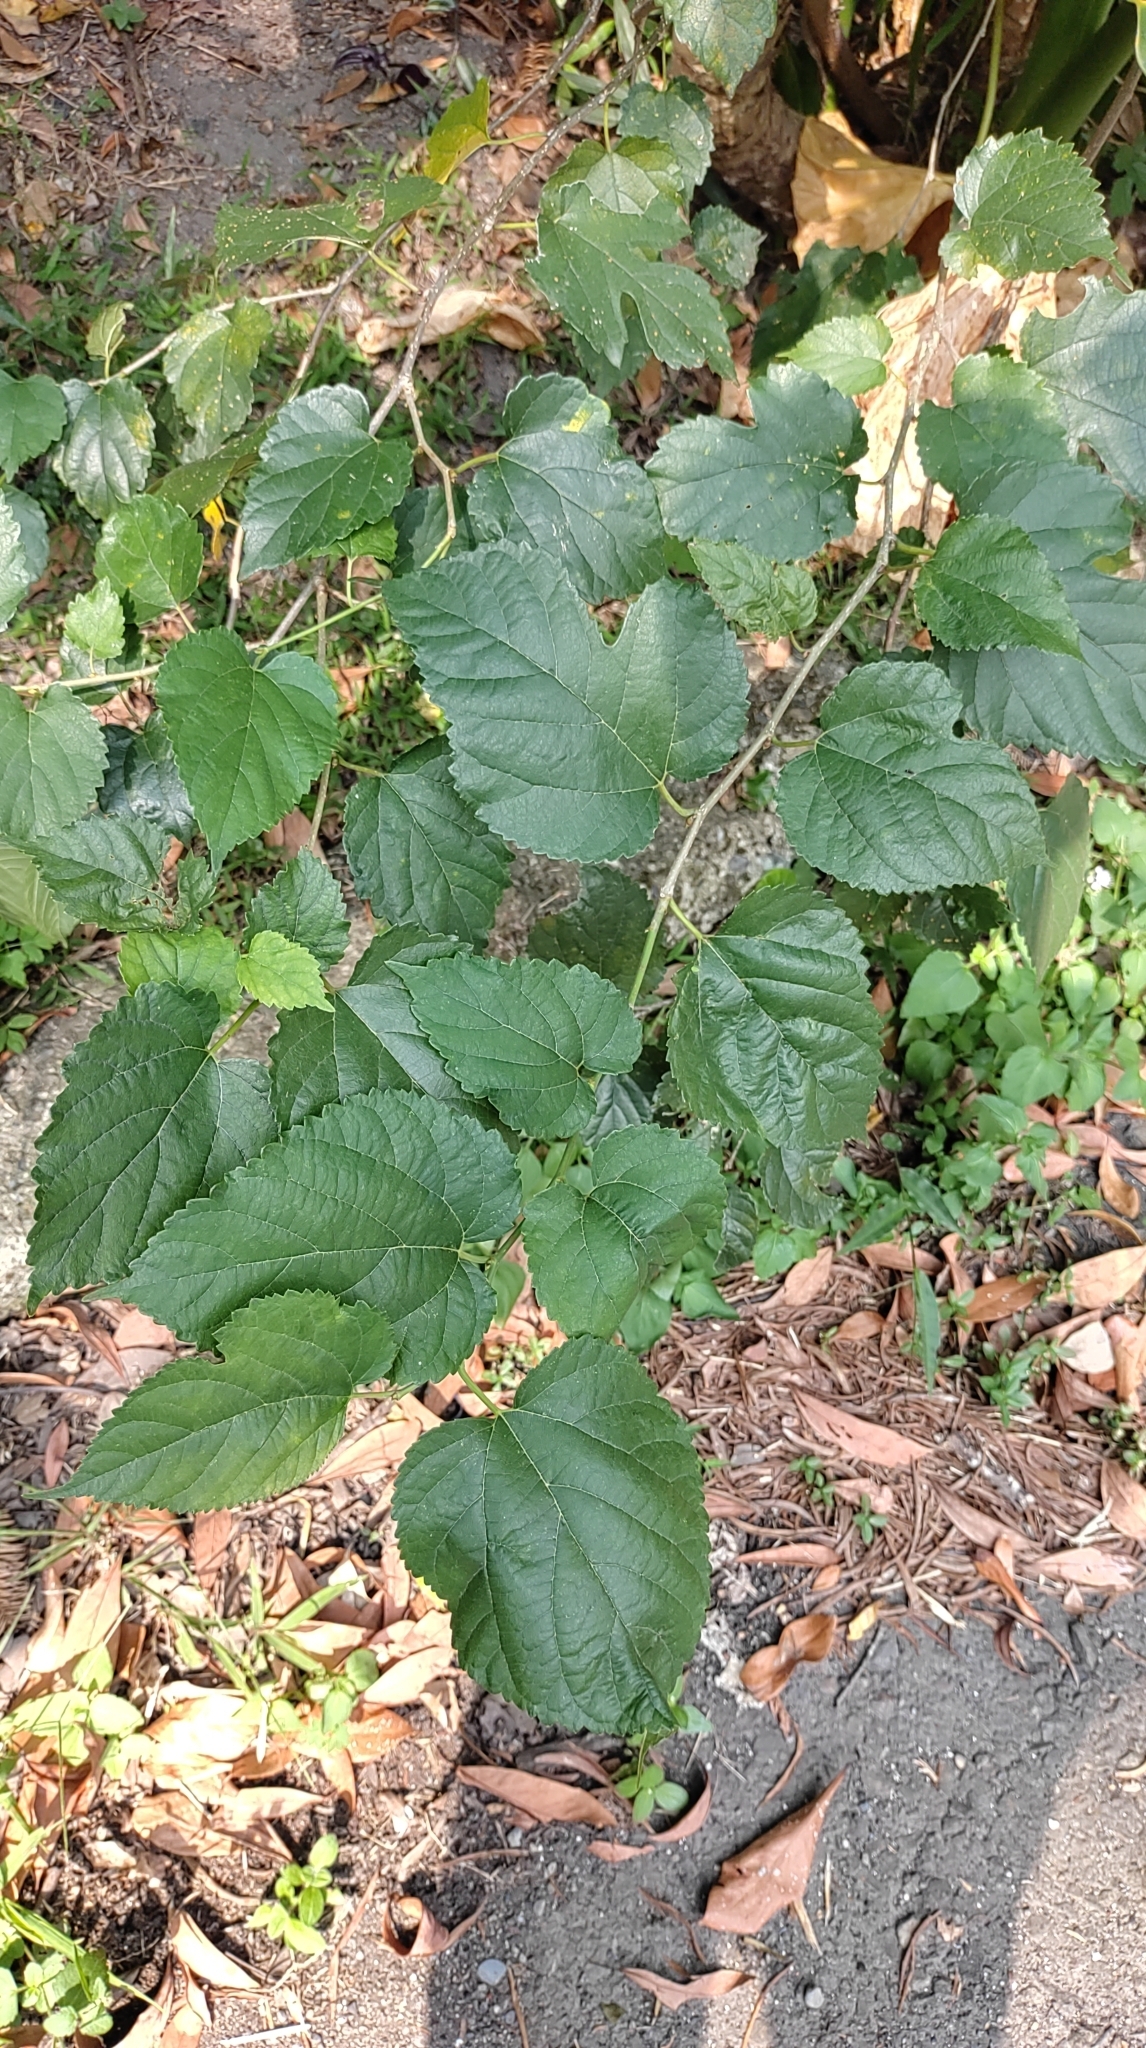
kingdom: Plantae
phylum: Tracheophyta
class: Magnoliopsida
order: Rosales
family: Moraceae
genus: Morus
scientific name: Morus indica
